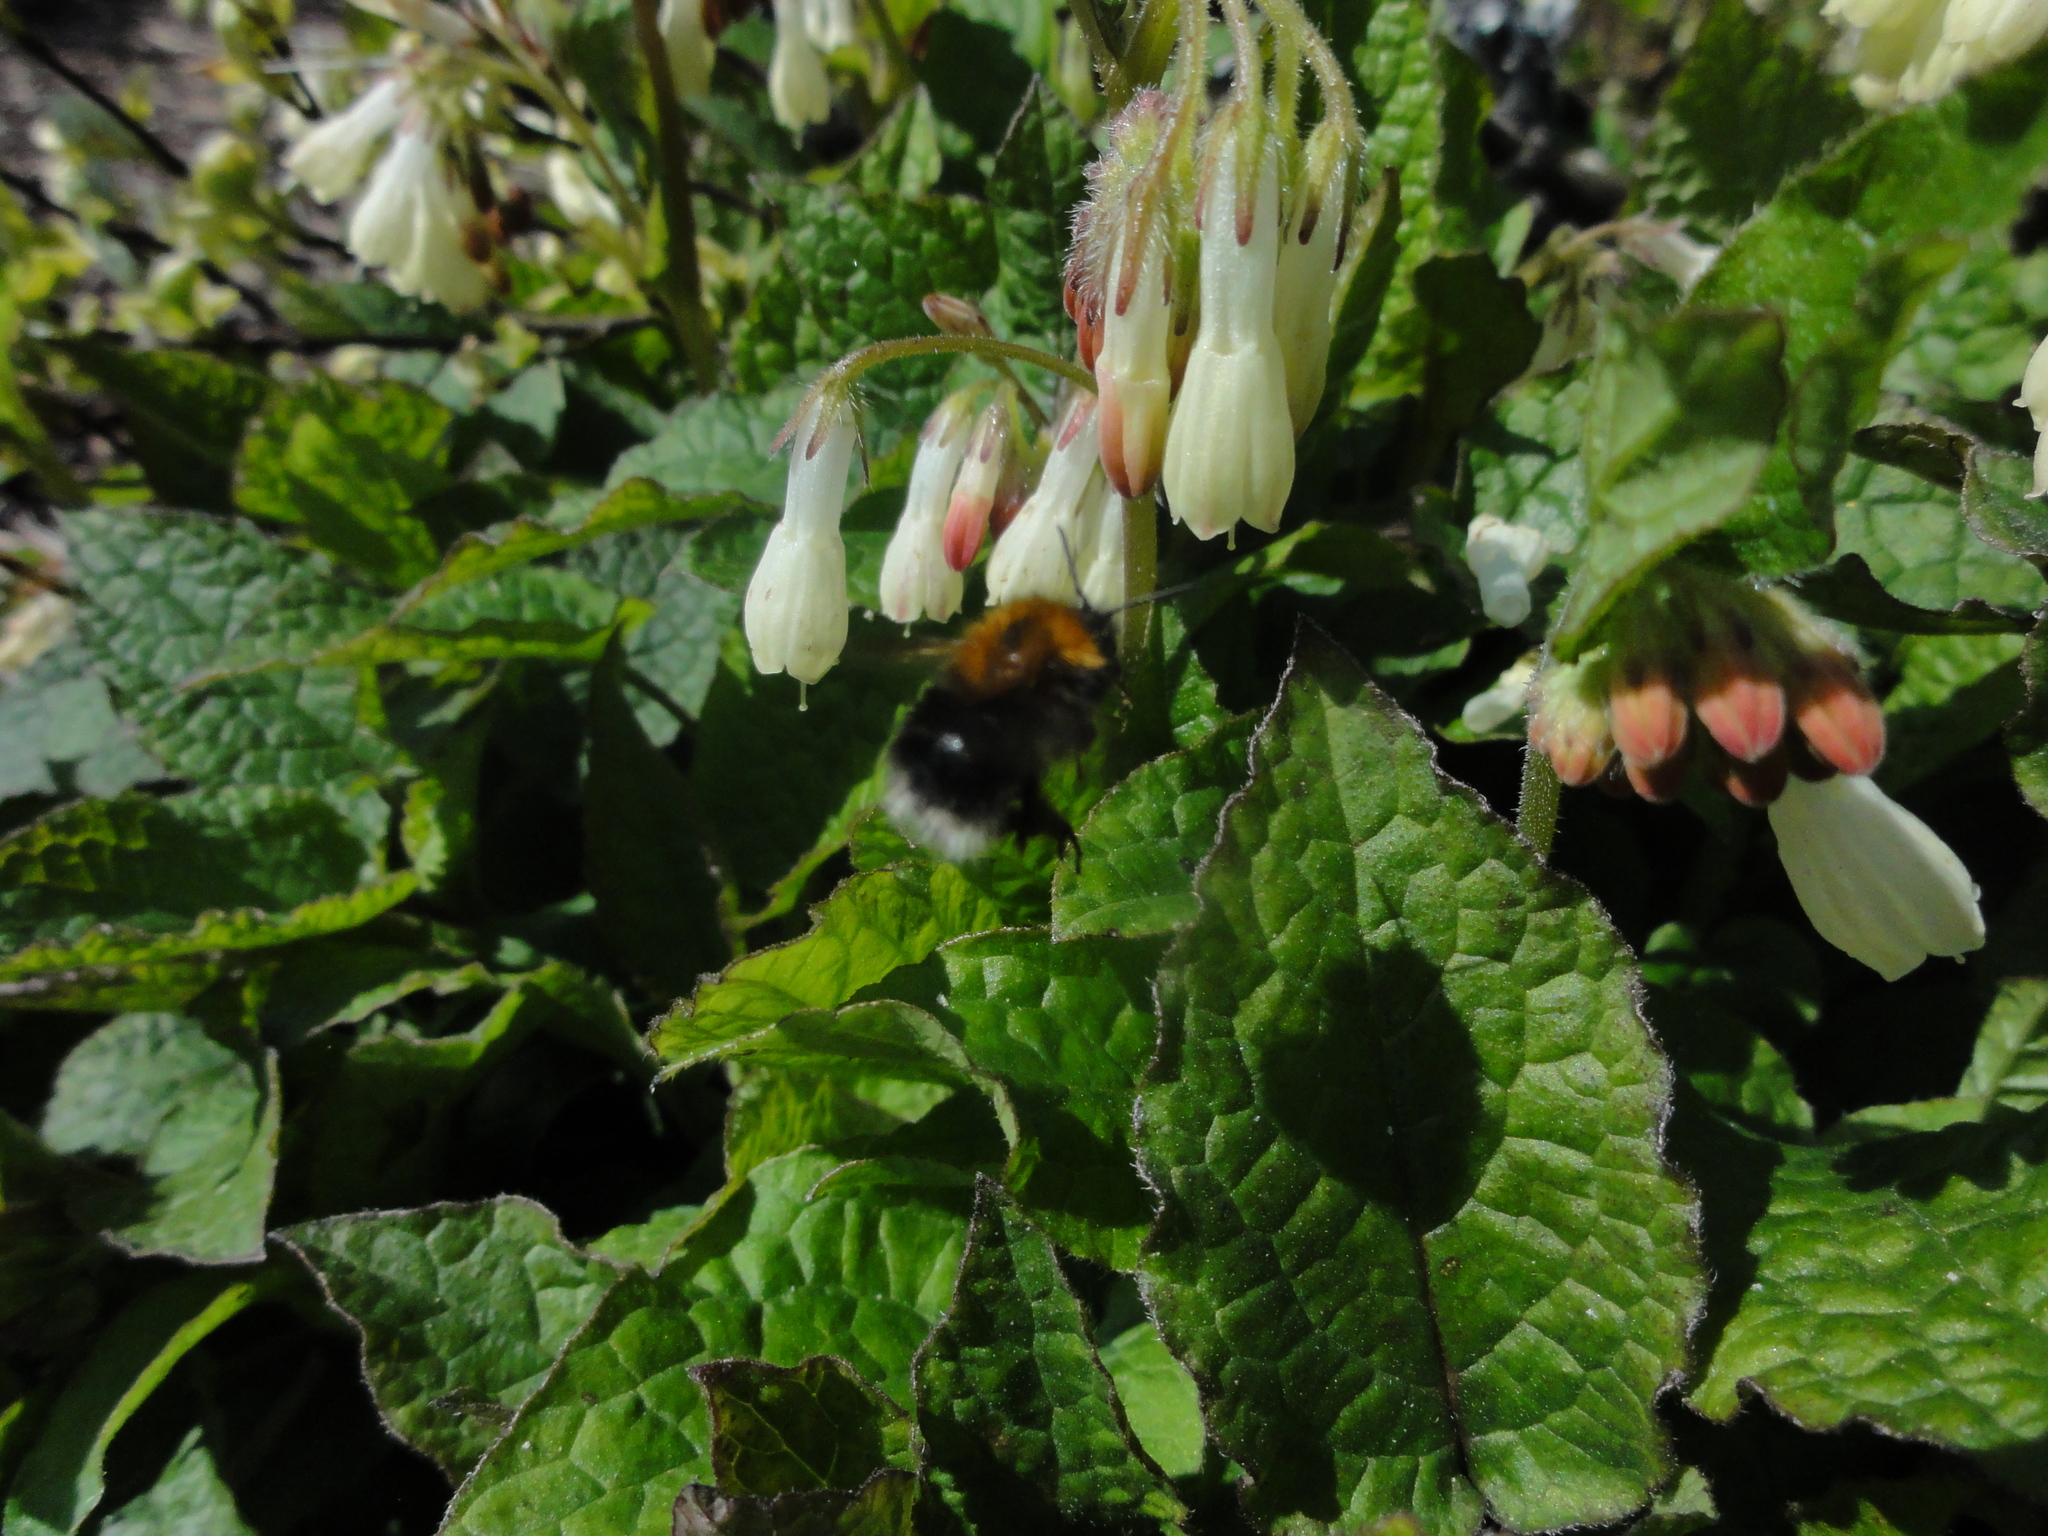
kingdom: Animalia
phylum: Arthropoda
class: Insecta
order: Hymenoptera
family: Apidae
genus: Bombus
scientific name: Bombus hypnorum
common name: New garden bumblebee
